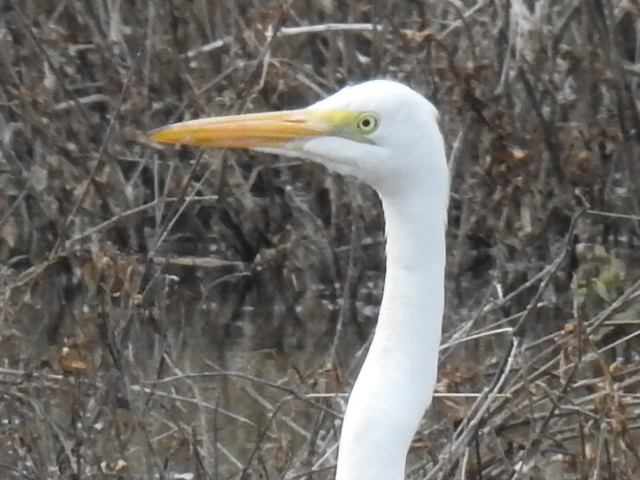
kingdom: Animalia
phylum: Chordata
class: Aves
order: Pelecaniformes
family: Ardeidae
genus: Ardea
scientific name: Ardea alba
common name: Great egret
